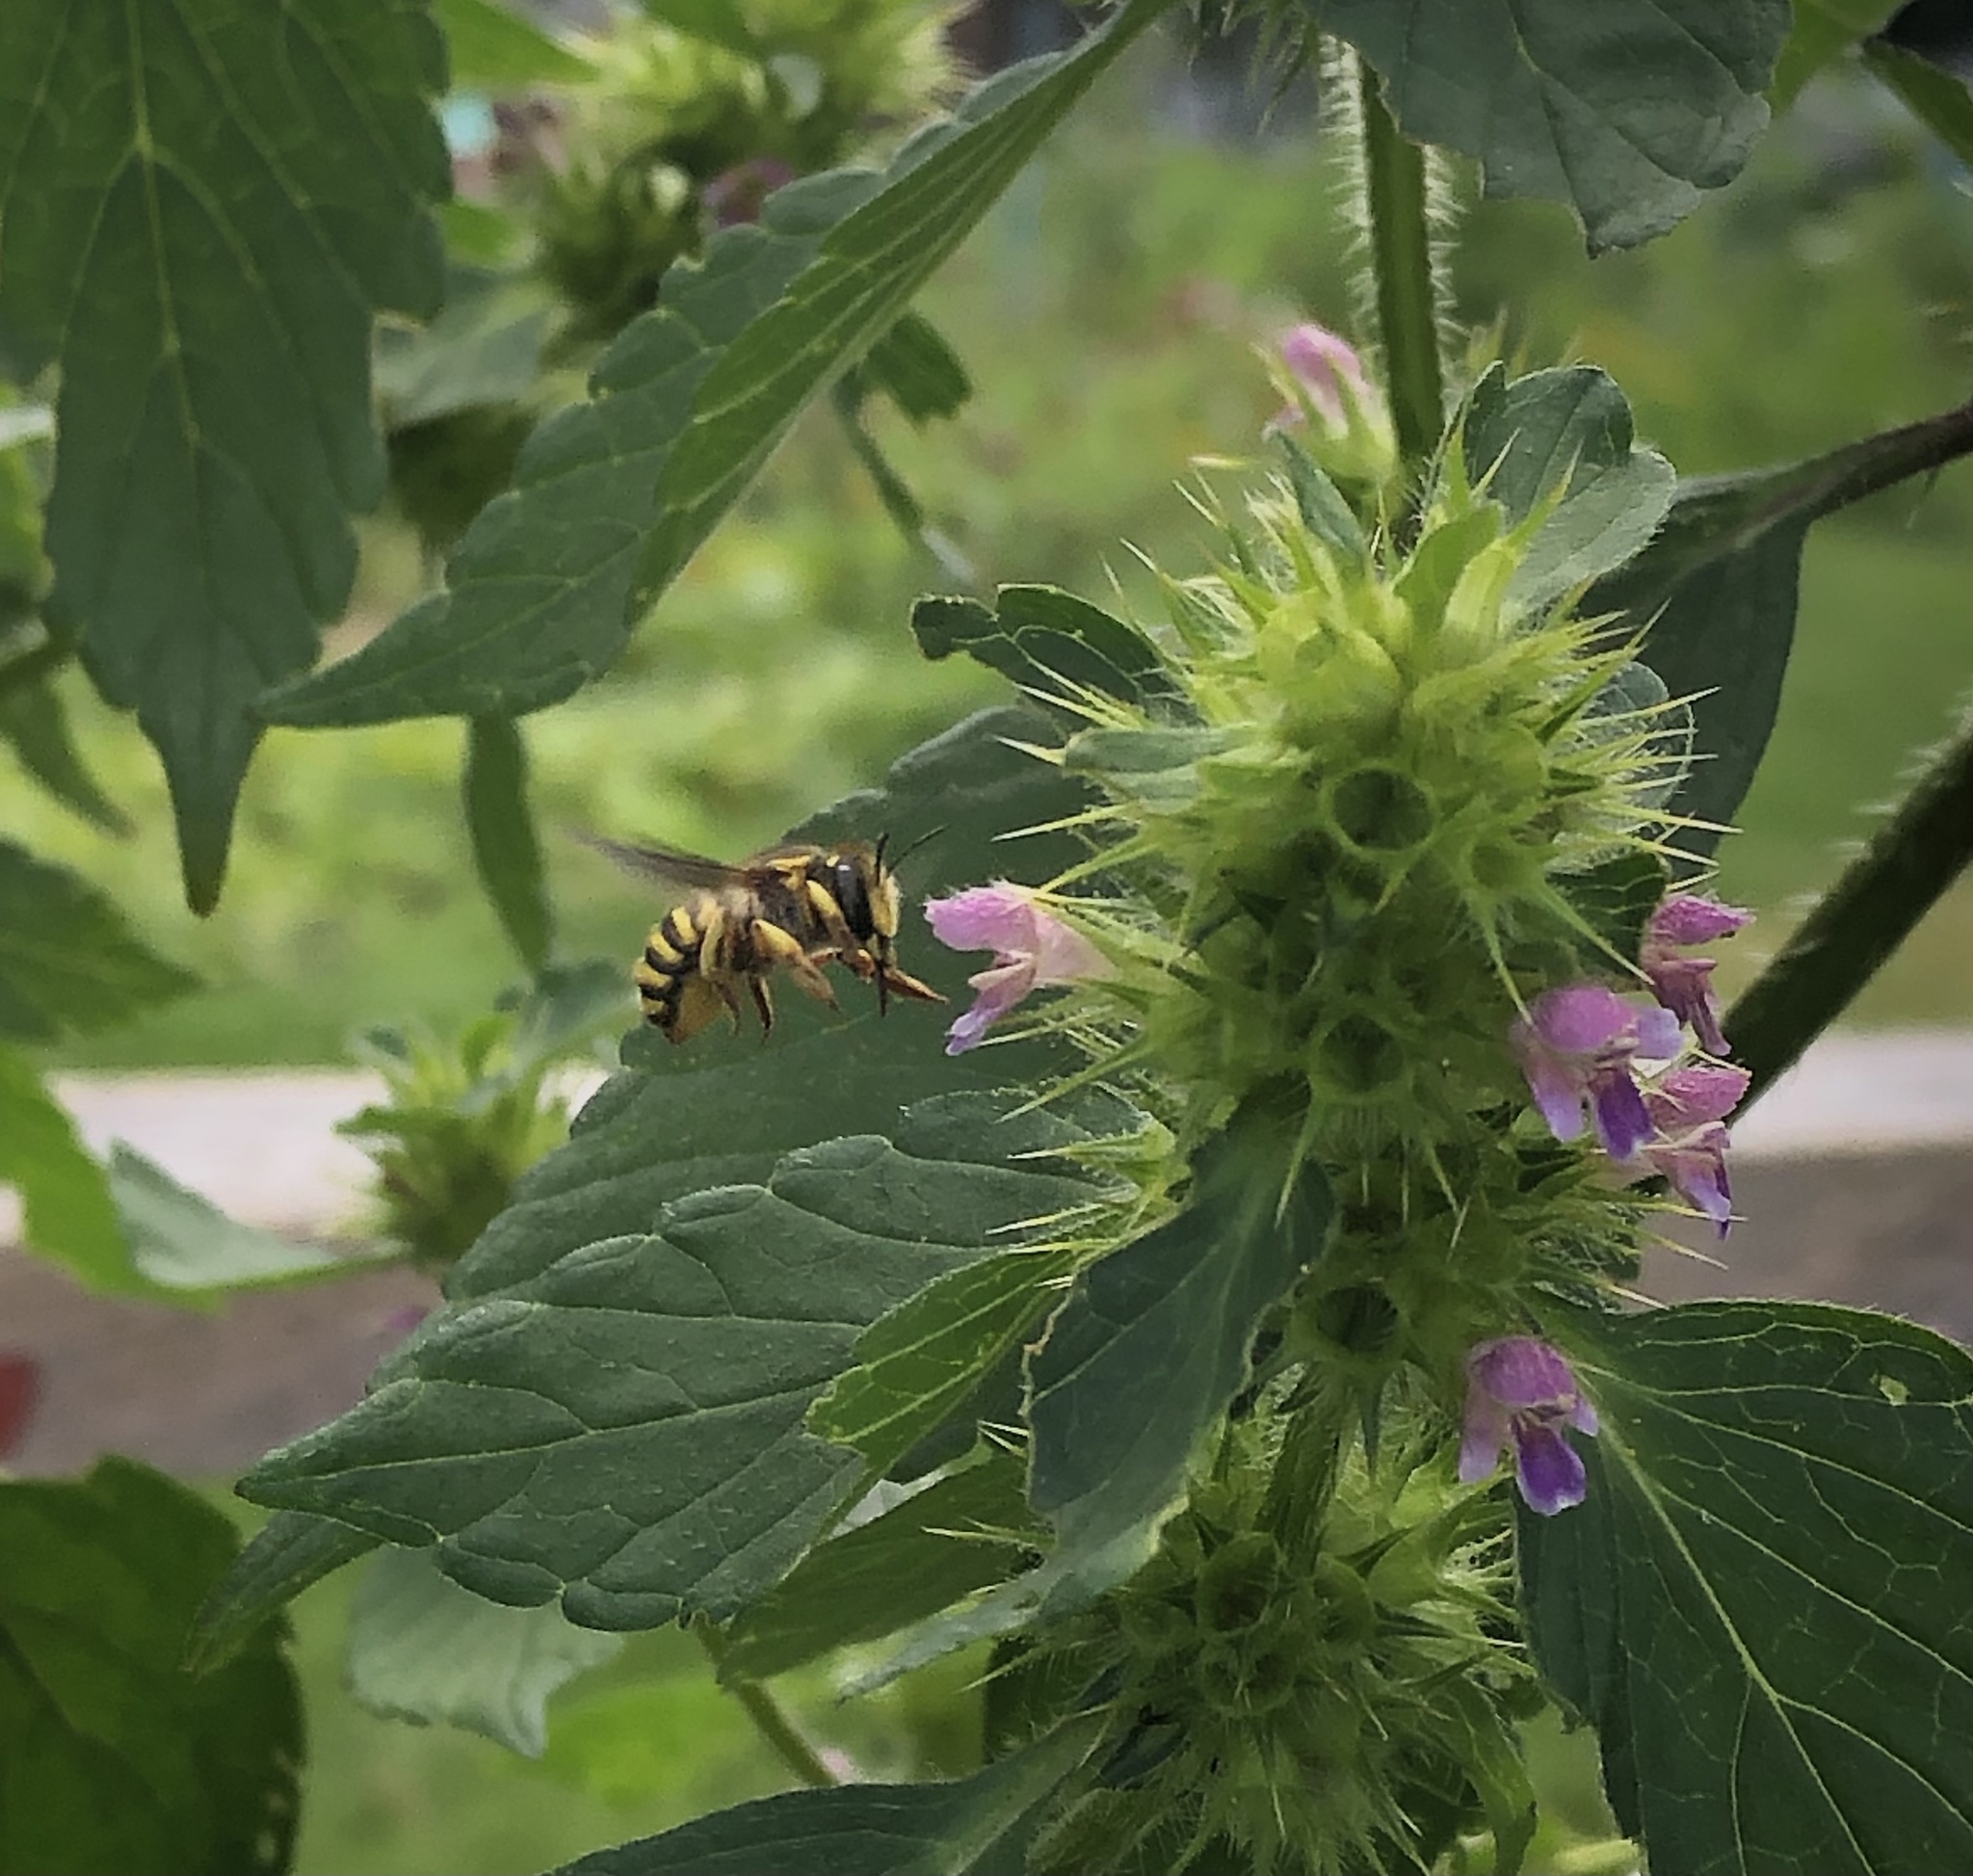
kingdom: Animalia
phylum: Arthropoda
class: Insecta
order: Hymenoptera
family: Megachilidae
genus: Anthidium
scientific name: Anthidium manicatum
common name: Wool carder bee
